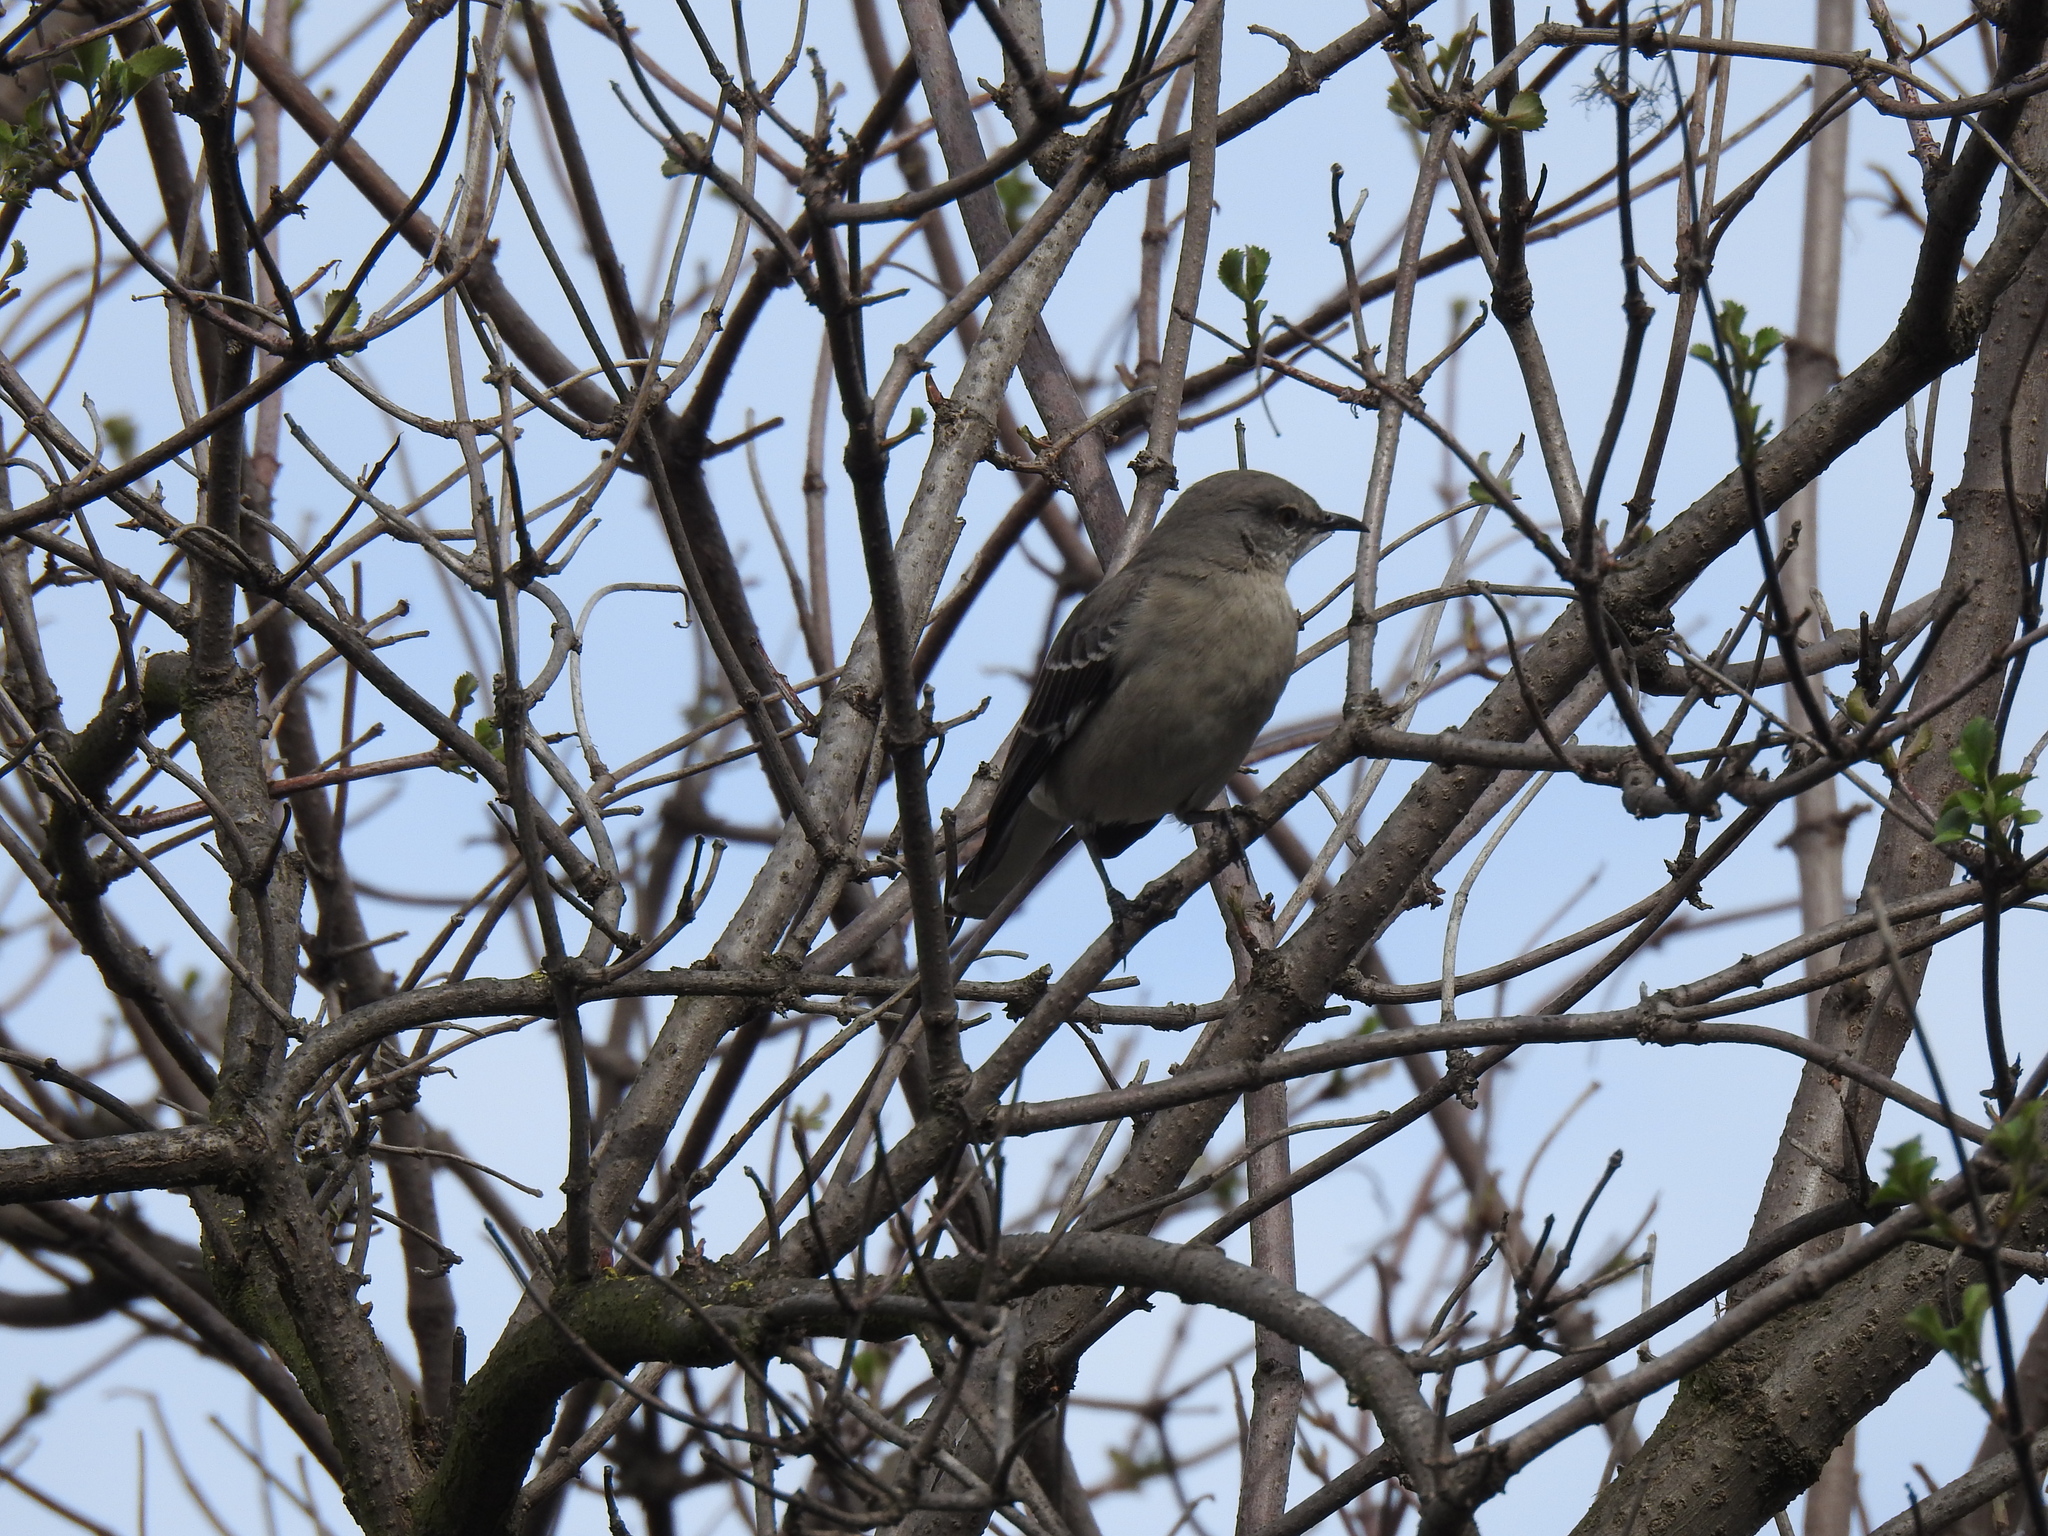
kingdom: Animalia
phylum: Chordata
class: Aves
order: Passeriformes
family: Mimidae
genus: Mimus
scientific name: Mimus polyglottos
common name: Northern mockingbird
